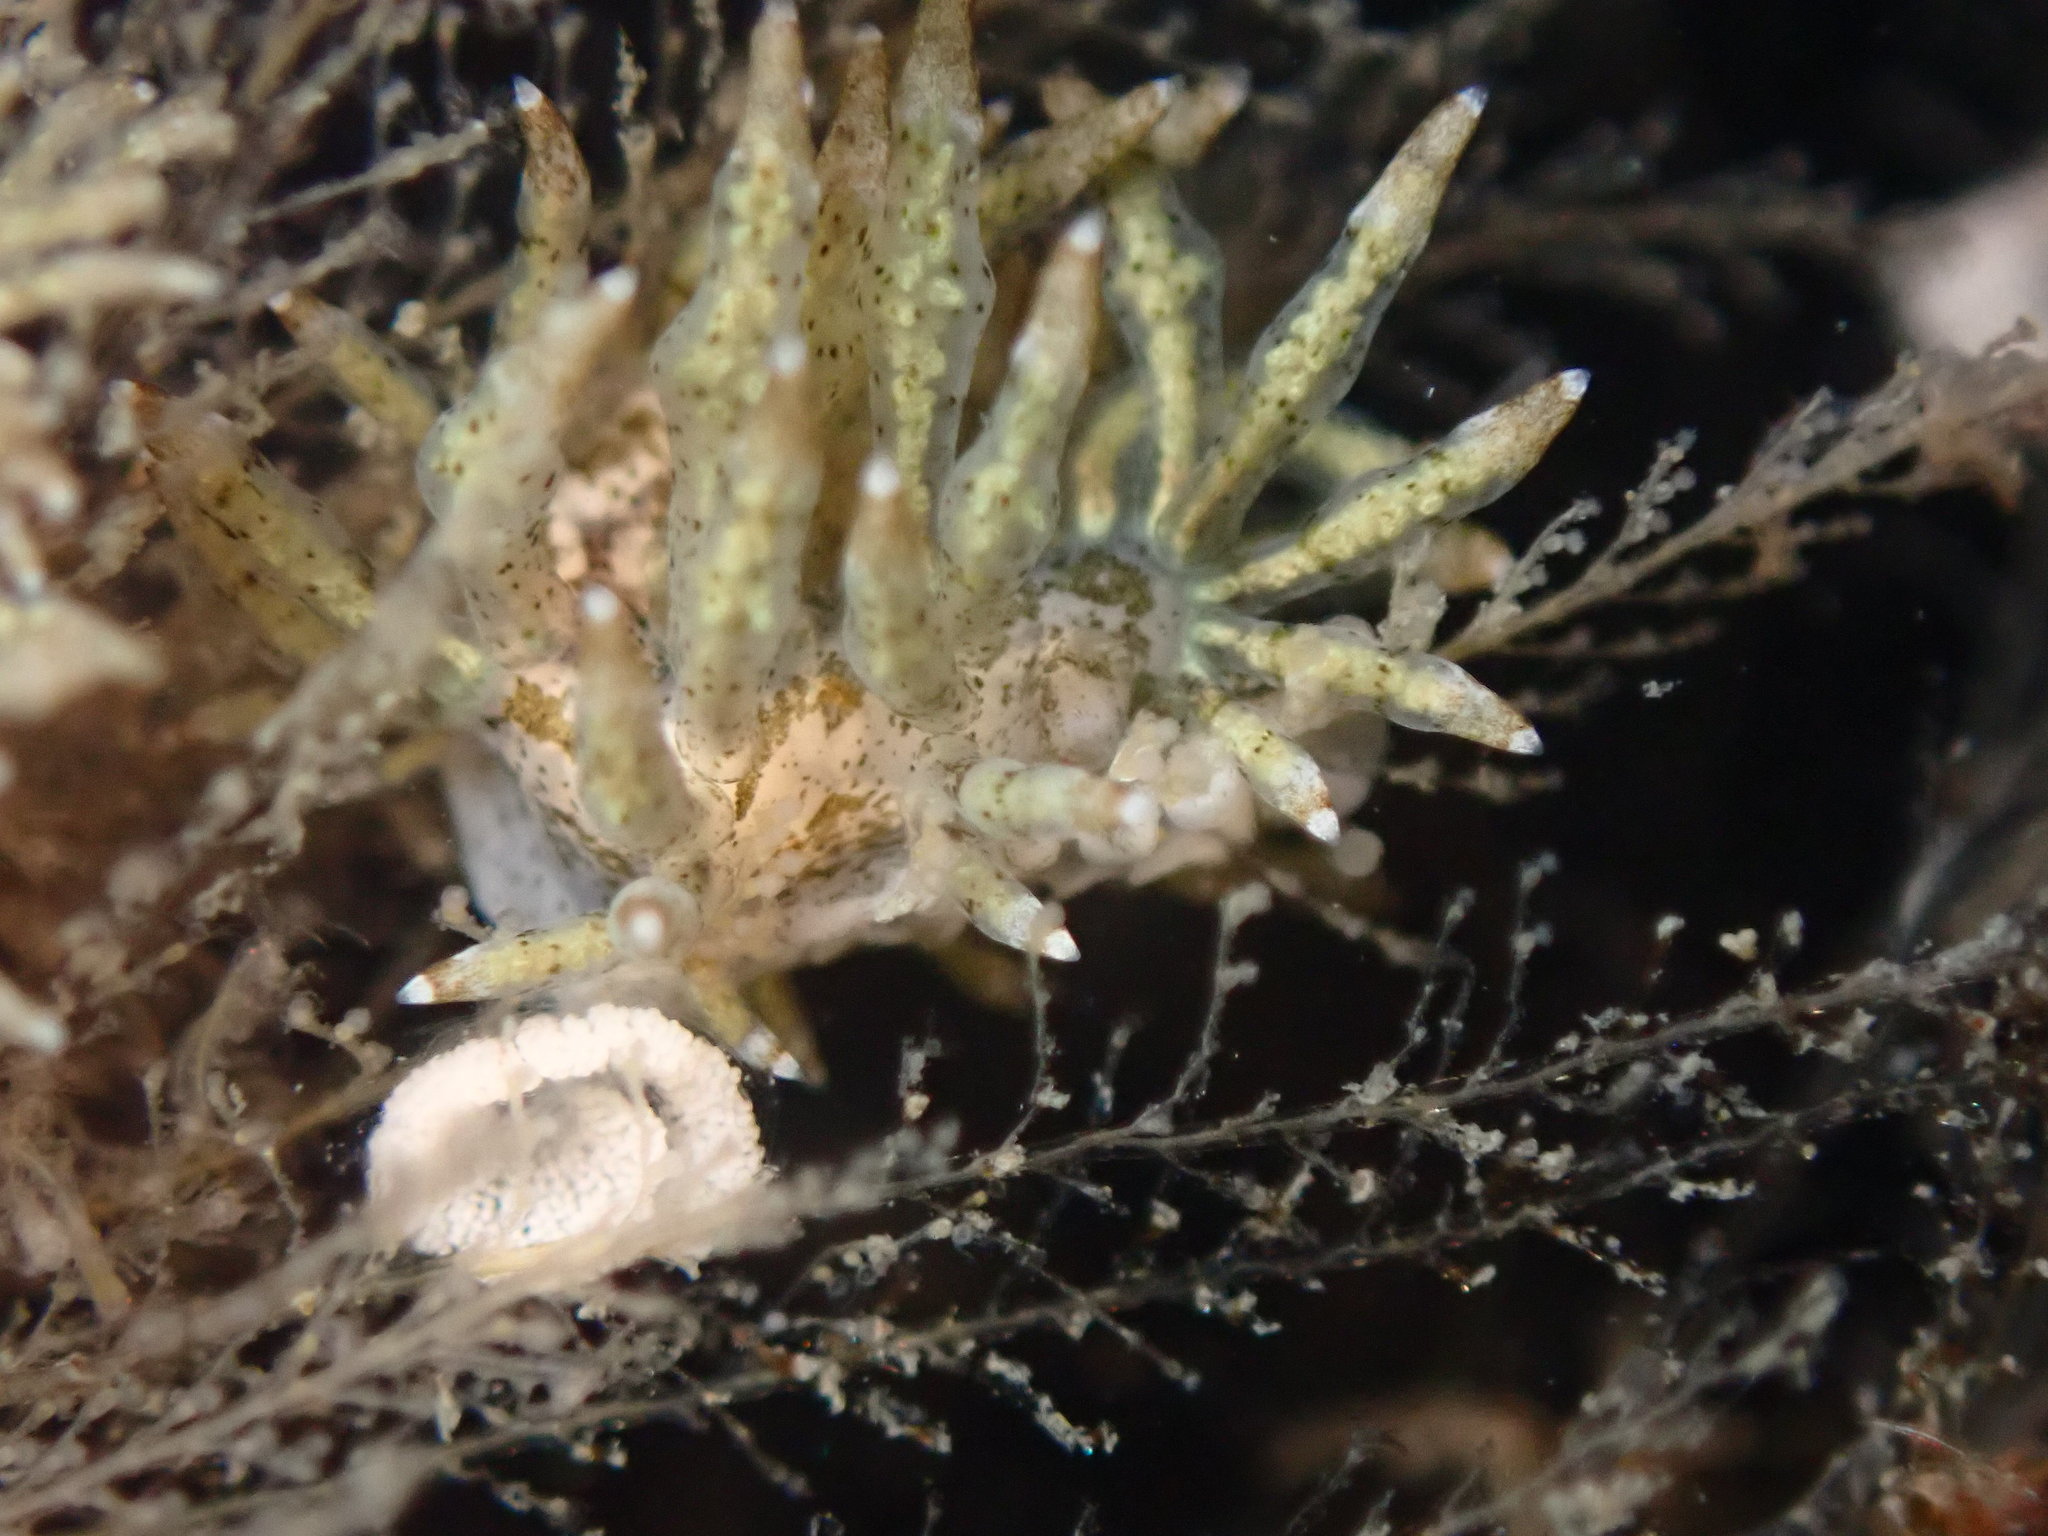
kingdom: Animalia
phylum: Mollusca
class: Gastropoda
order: Nudibranchia
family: Eubranchidae
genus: Eubranchus
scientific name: Eubranchus rustyus
